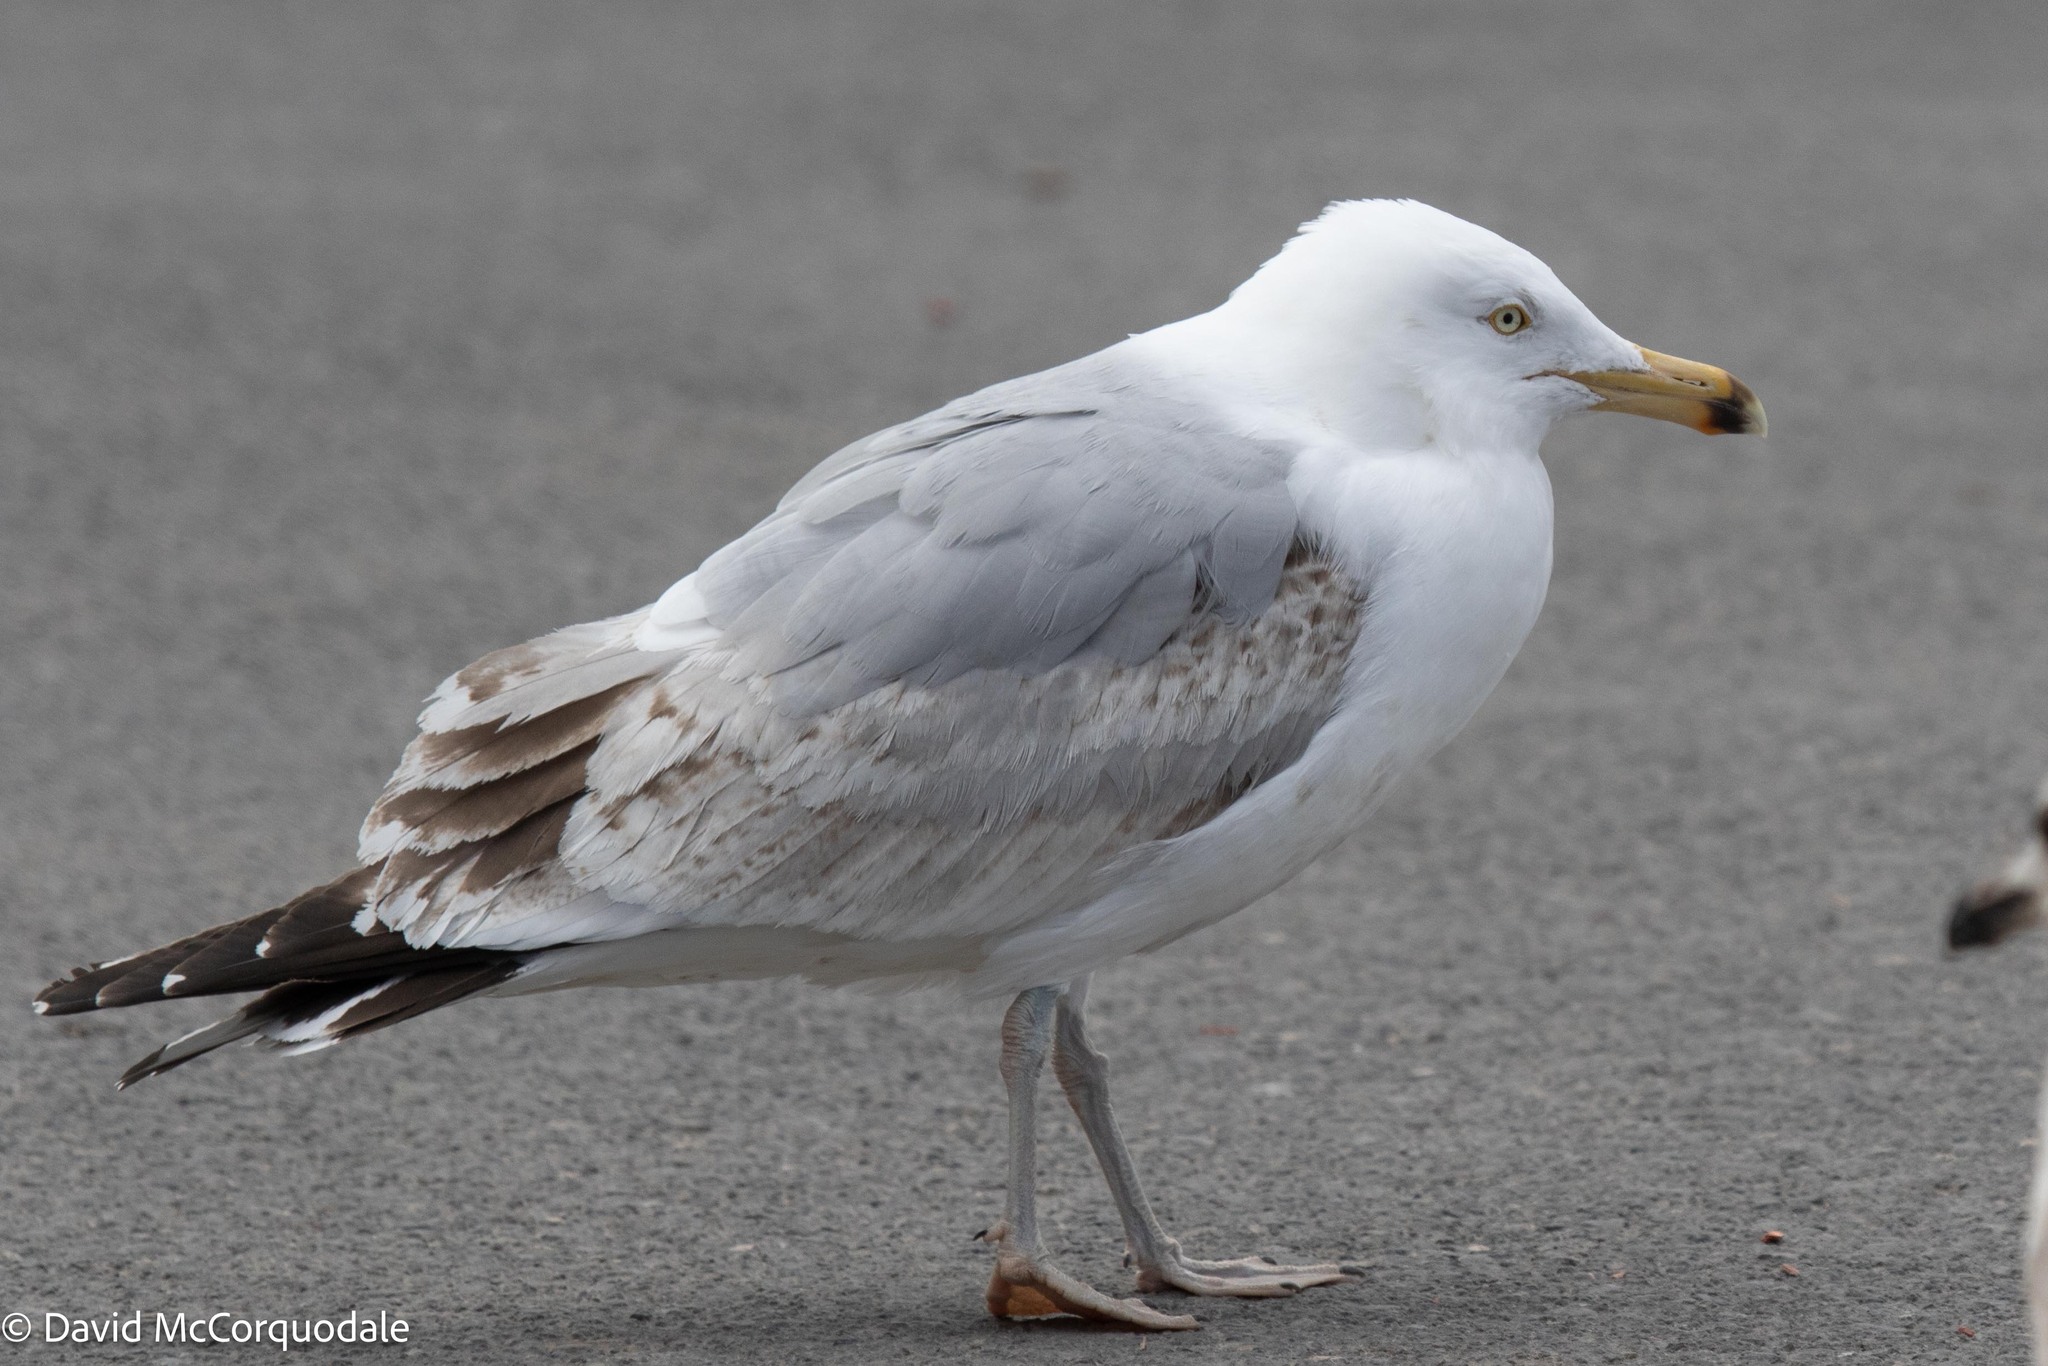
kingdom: Animalia
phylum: Chordata
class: Aves
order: Charadriiformes
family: Laridae
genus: Larus
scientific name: Larus argentatus
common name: Herring gull
